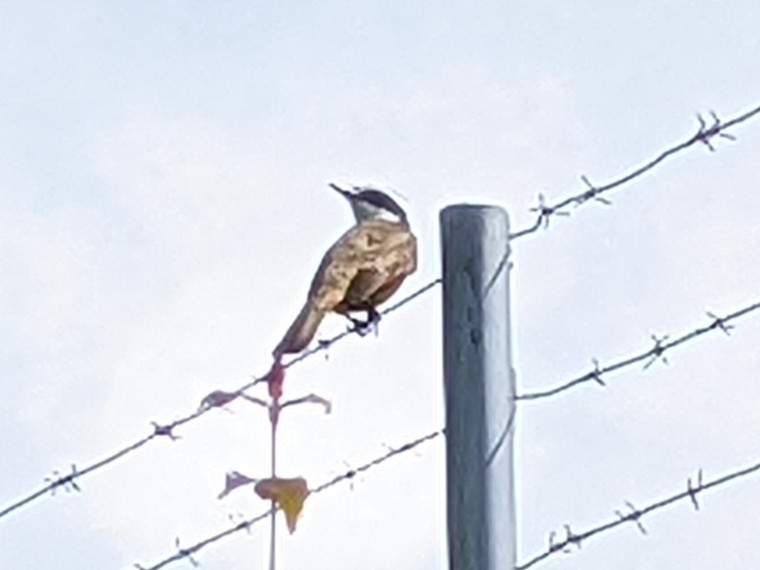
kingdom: Animalia
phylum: Chordata
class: Aves
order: Passeriformes
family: Tyrannidae
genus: Pitangus
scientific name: Pitangus sulphuratus
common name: Great kiskadee
